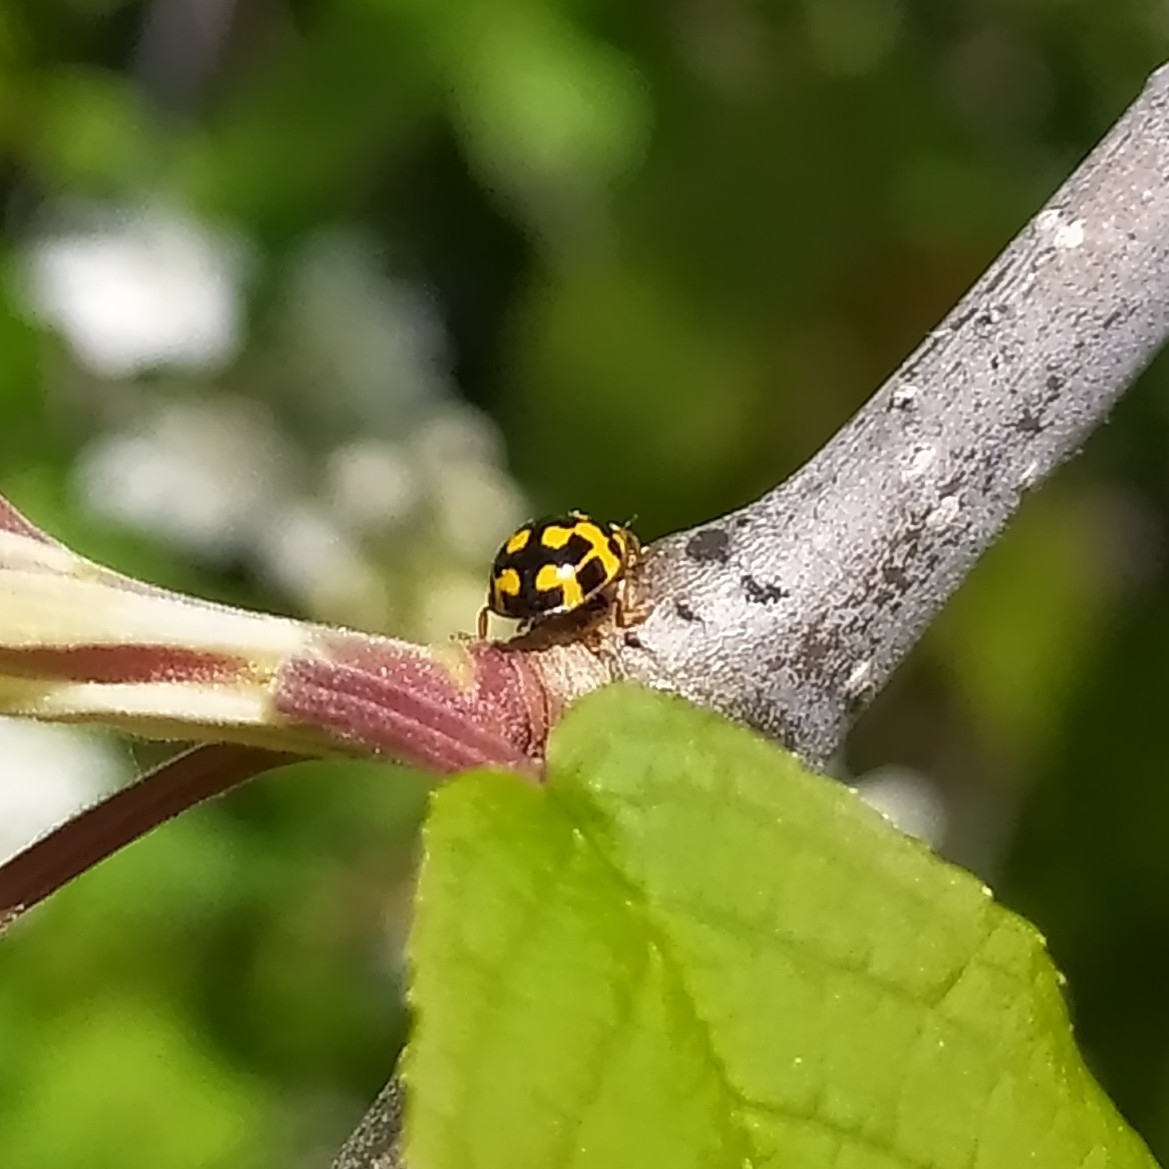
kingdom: Animalia
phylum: Arthropoda
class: Insecta
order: Coleoptera
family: Coccinellidae
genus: Propylaea
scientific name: Propylaea quatuordecimpunctata
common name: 14-spotted ladybird beetle
